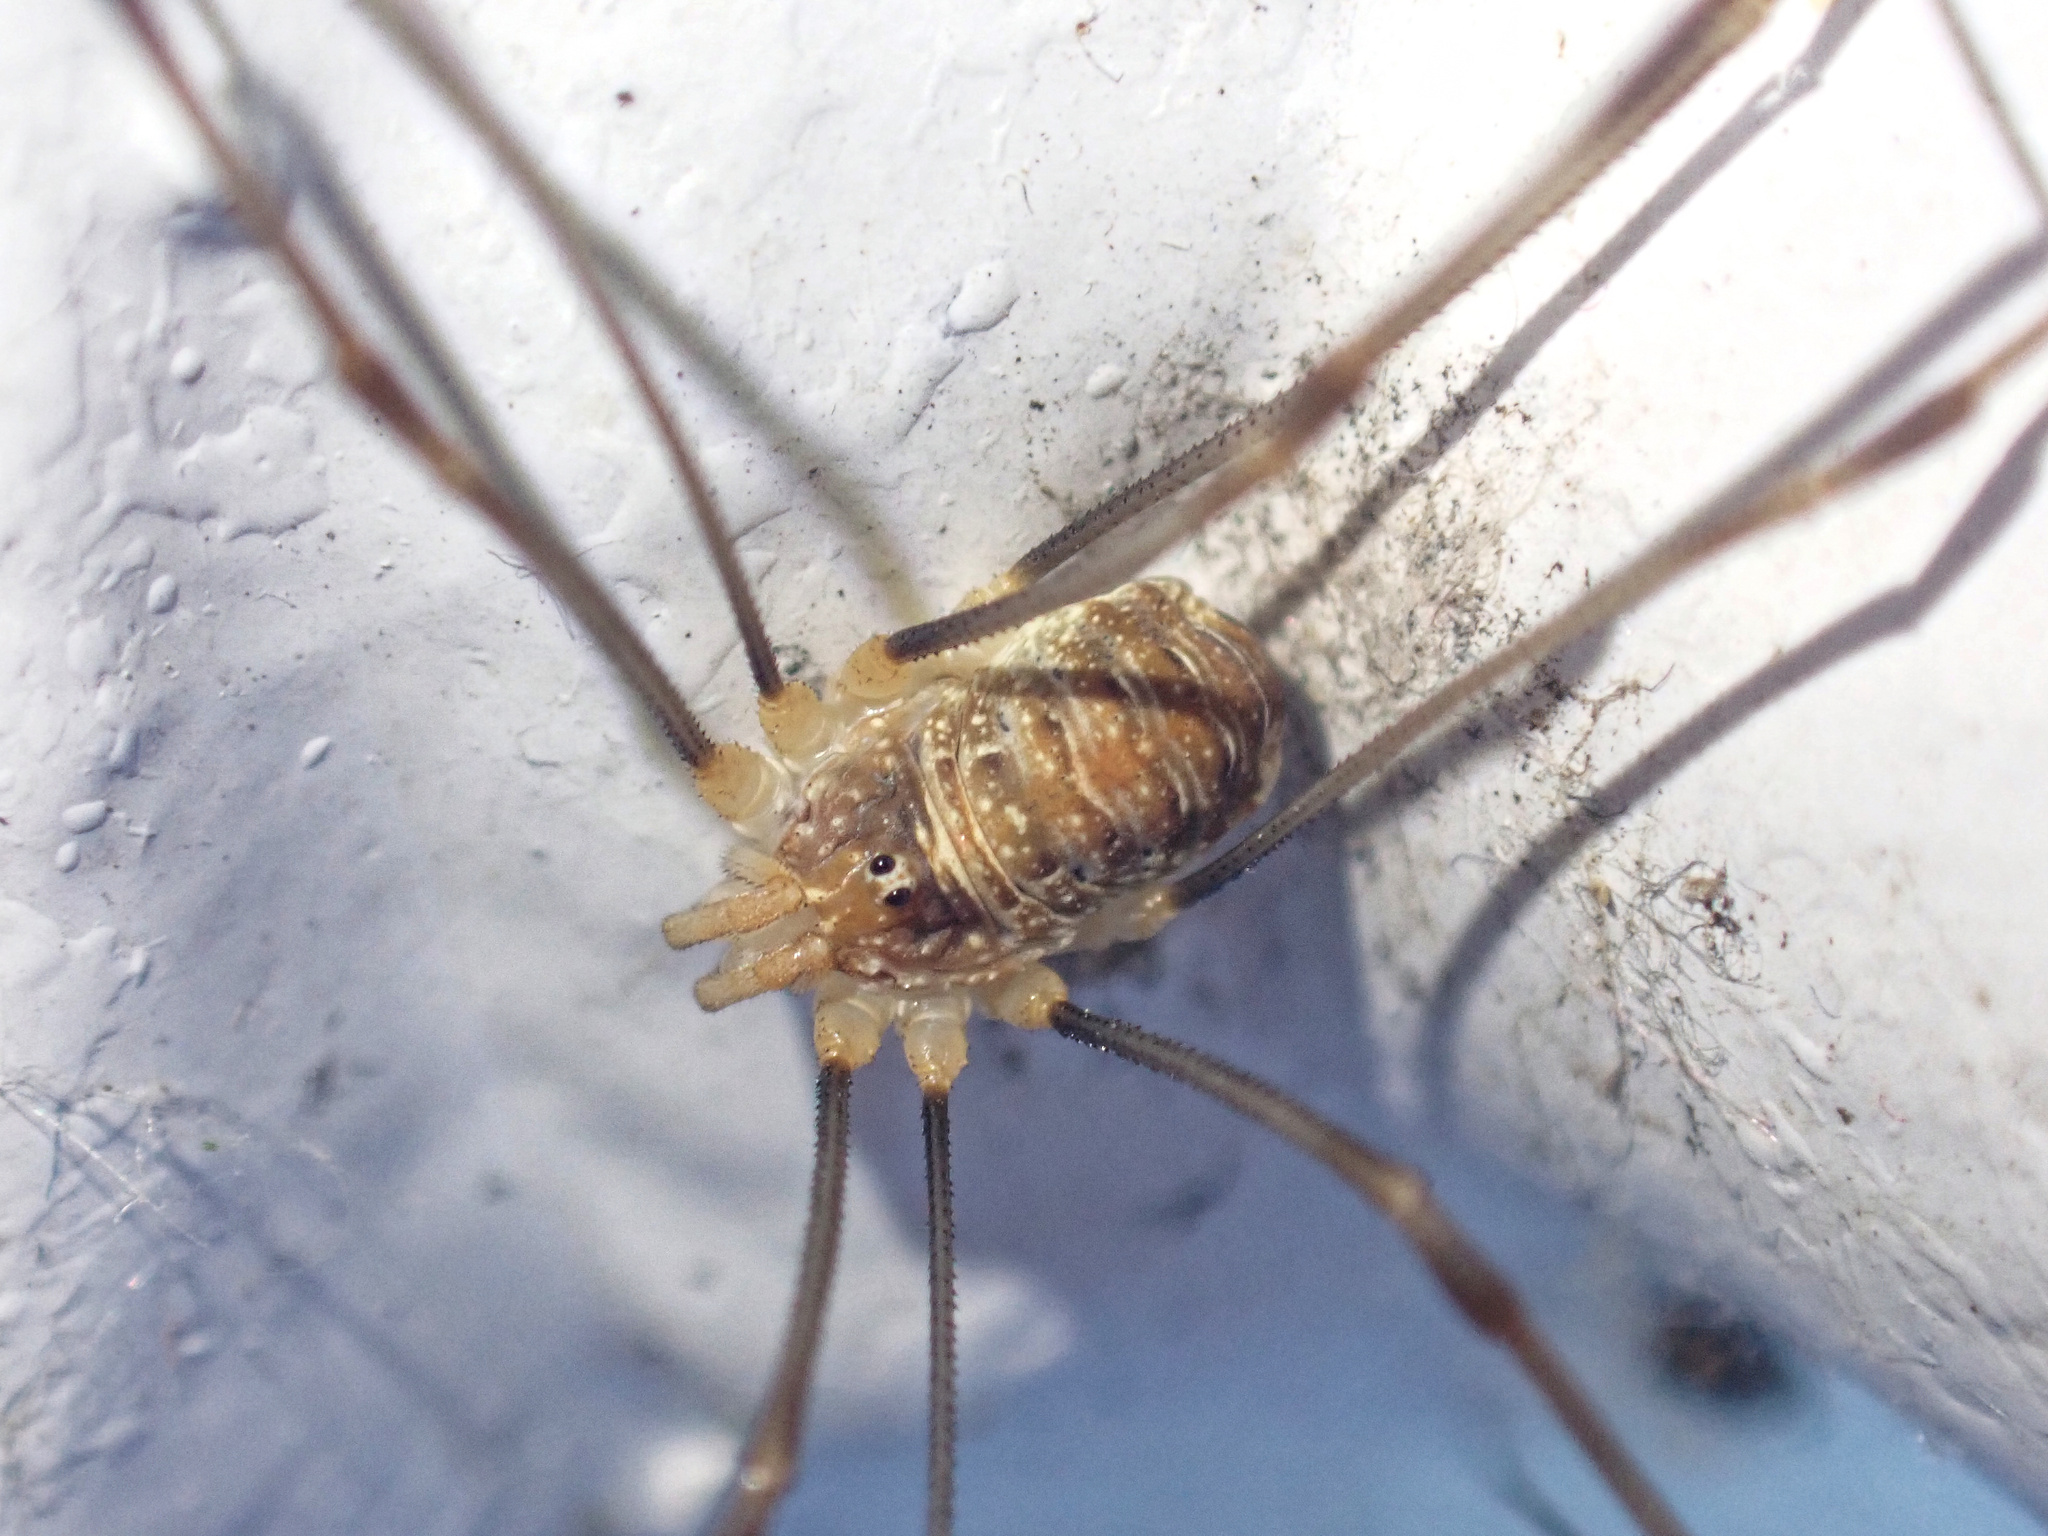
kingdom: Animalia
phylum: Arthropoda
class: Arachnida
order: Opiliones
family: Phalangiidae
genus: Opilio
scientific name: Opilio canestrinii
